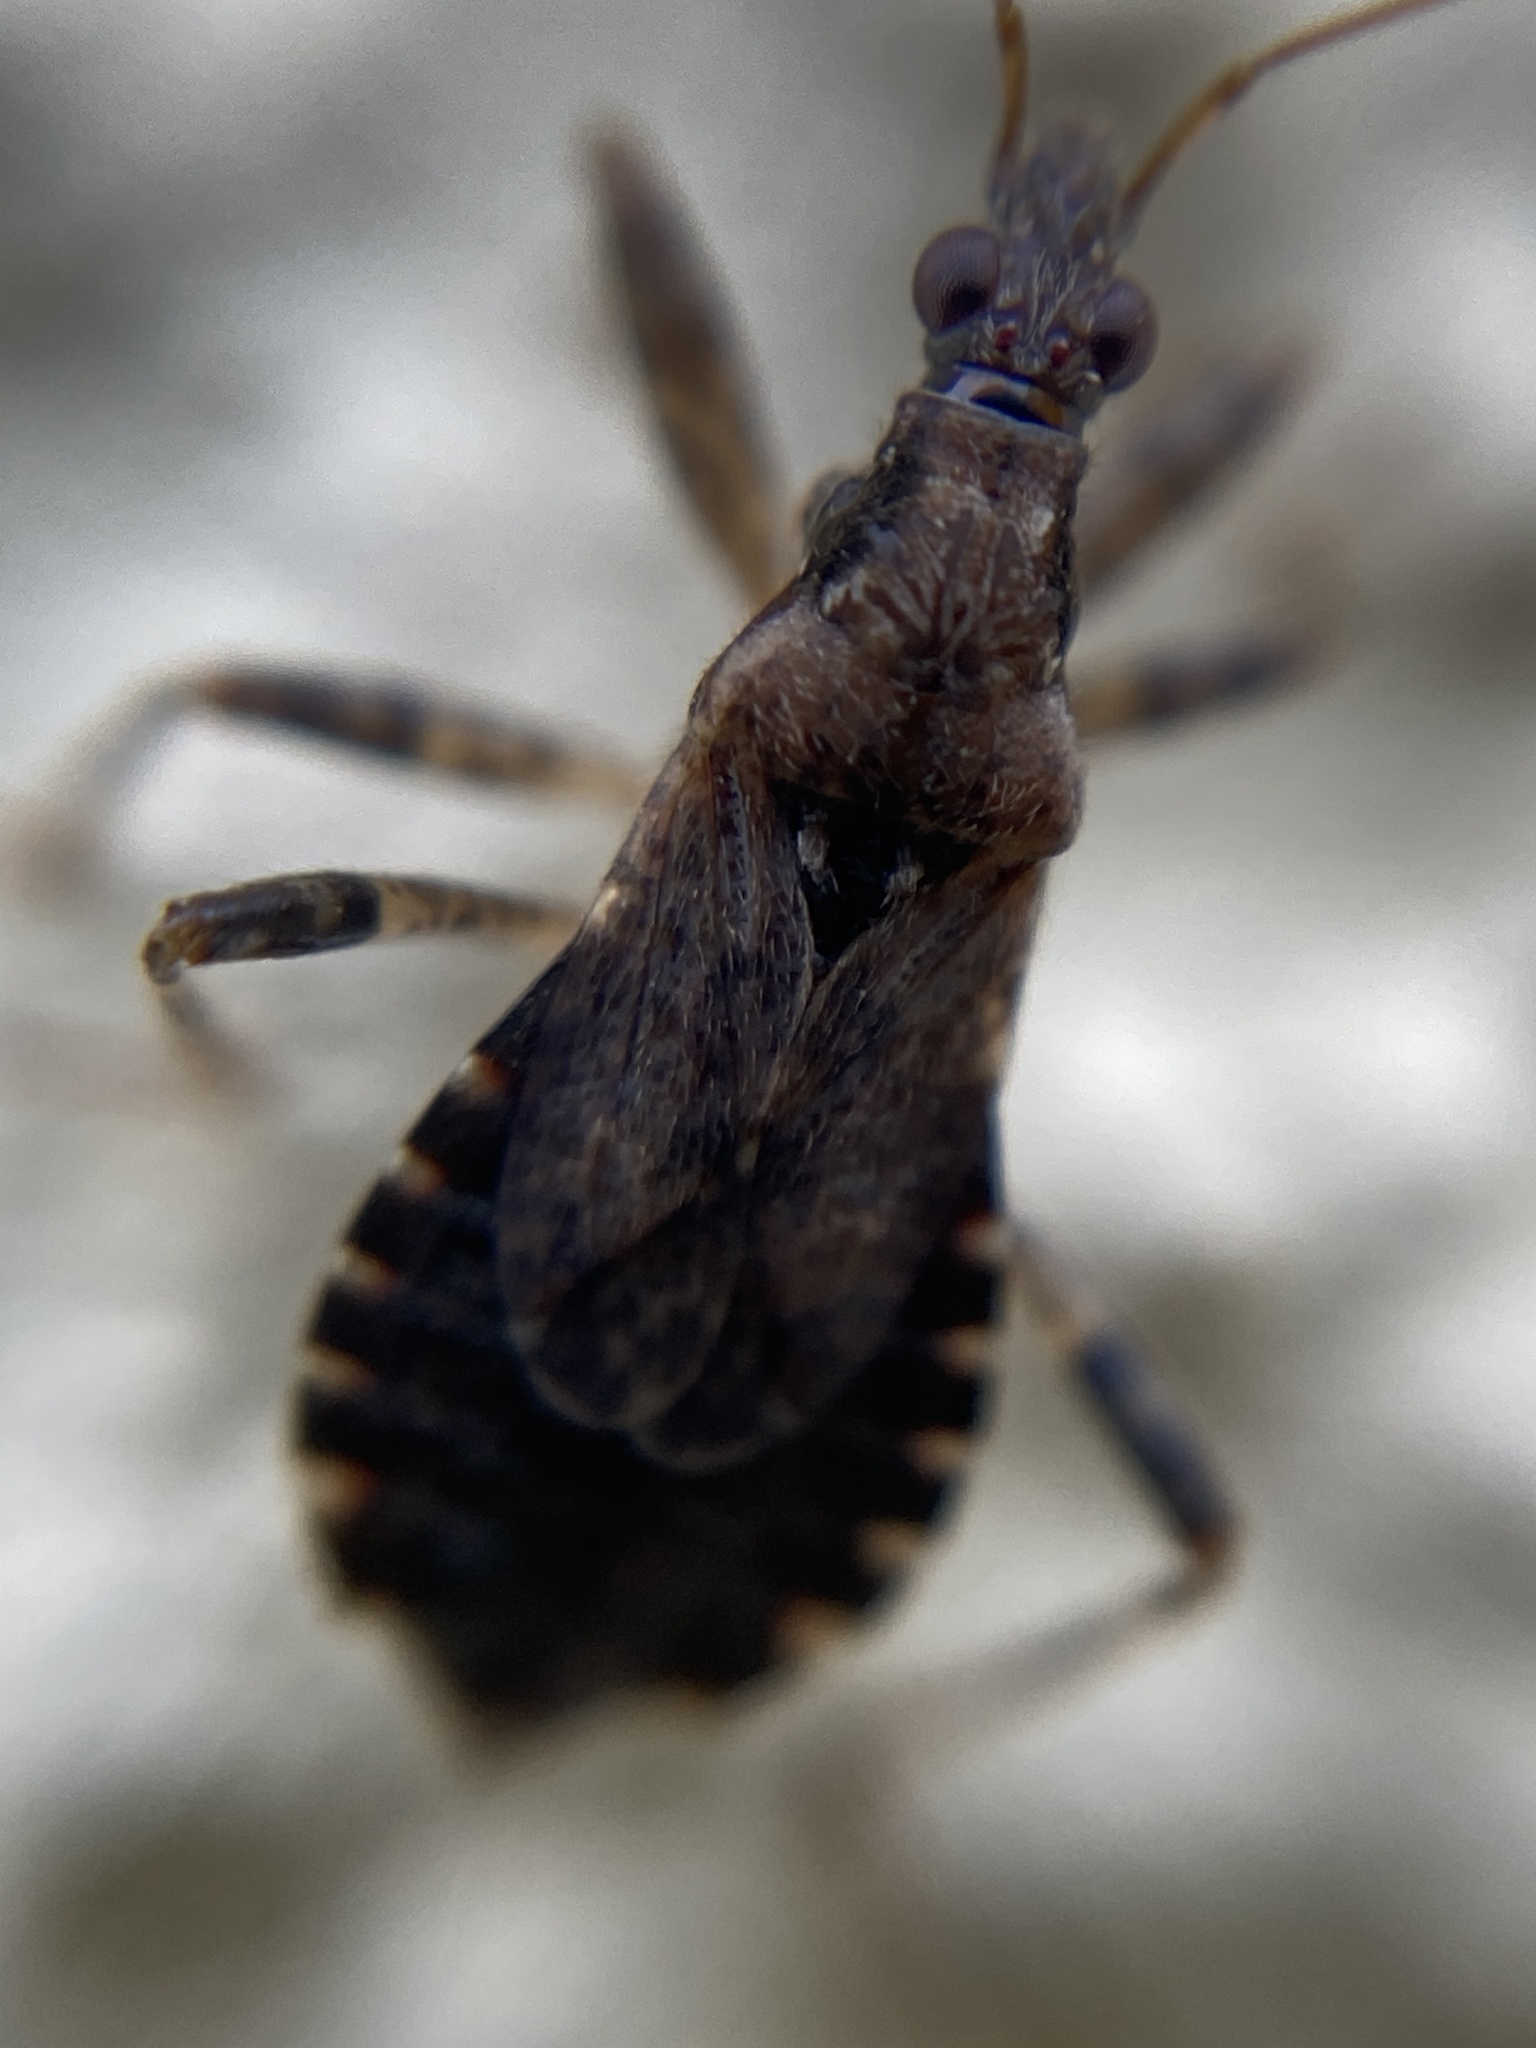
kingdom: Animalia
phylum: Arthropoda
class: Insecta
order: Hemiptera
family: Nabidae
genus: Himacerus
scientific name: Himacerus mirmicoides
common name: Ant damsel bug
